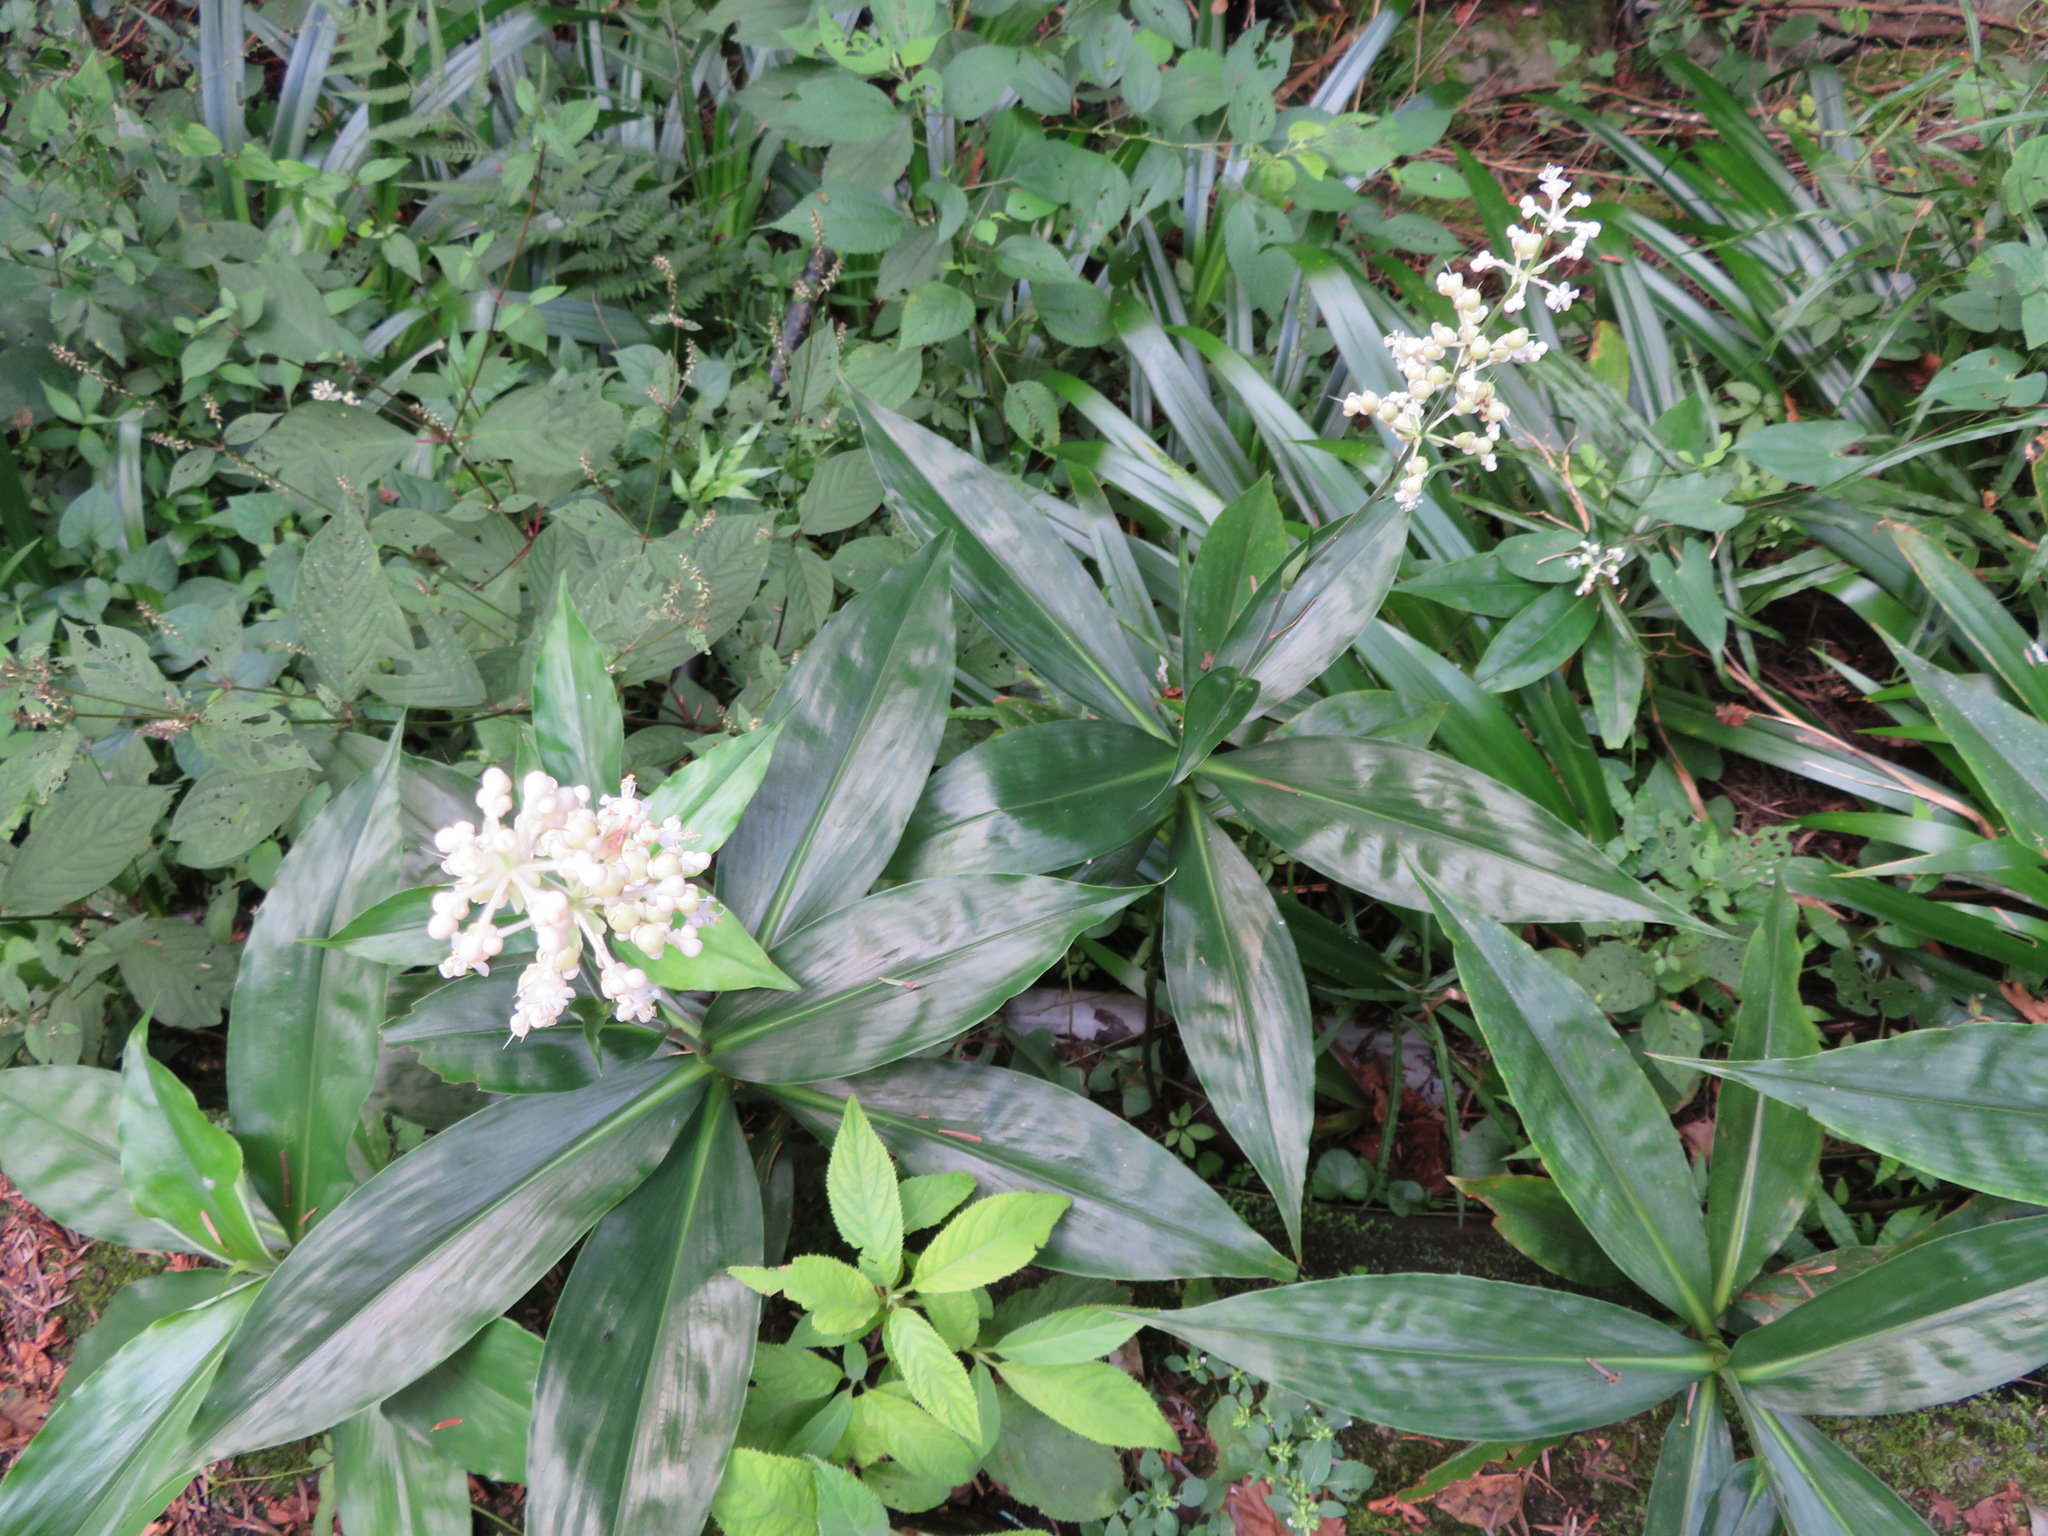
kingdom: Plantae
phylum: Tracheophyta
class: Liliopsida
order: Commelinales
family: Commelinaceae
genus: Pollia
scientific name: Pollia japonica
